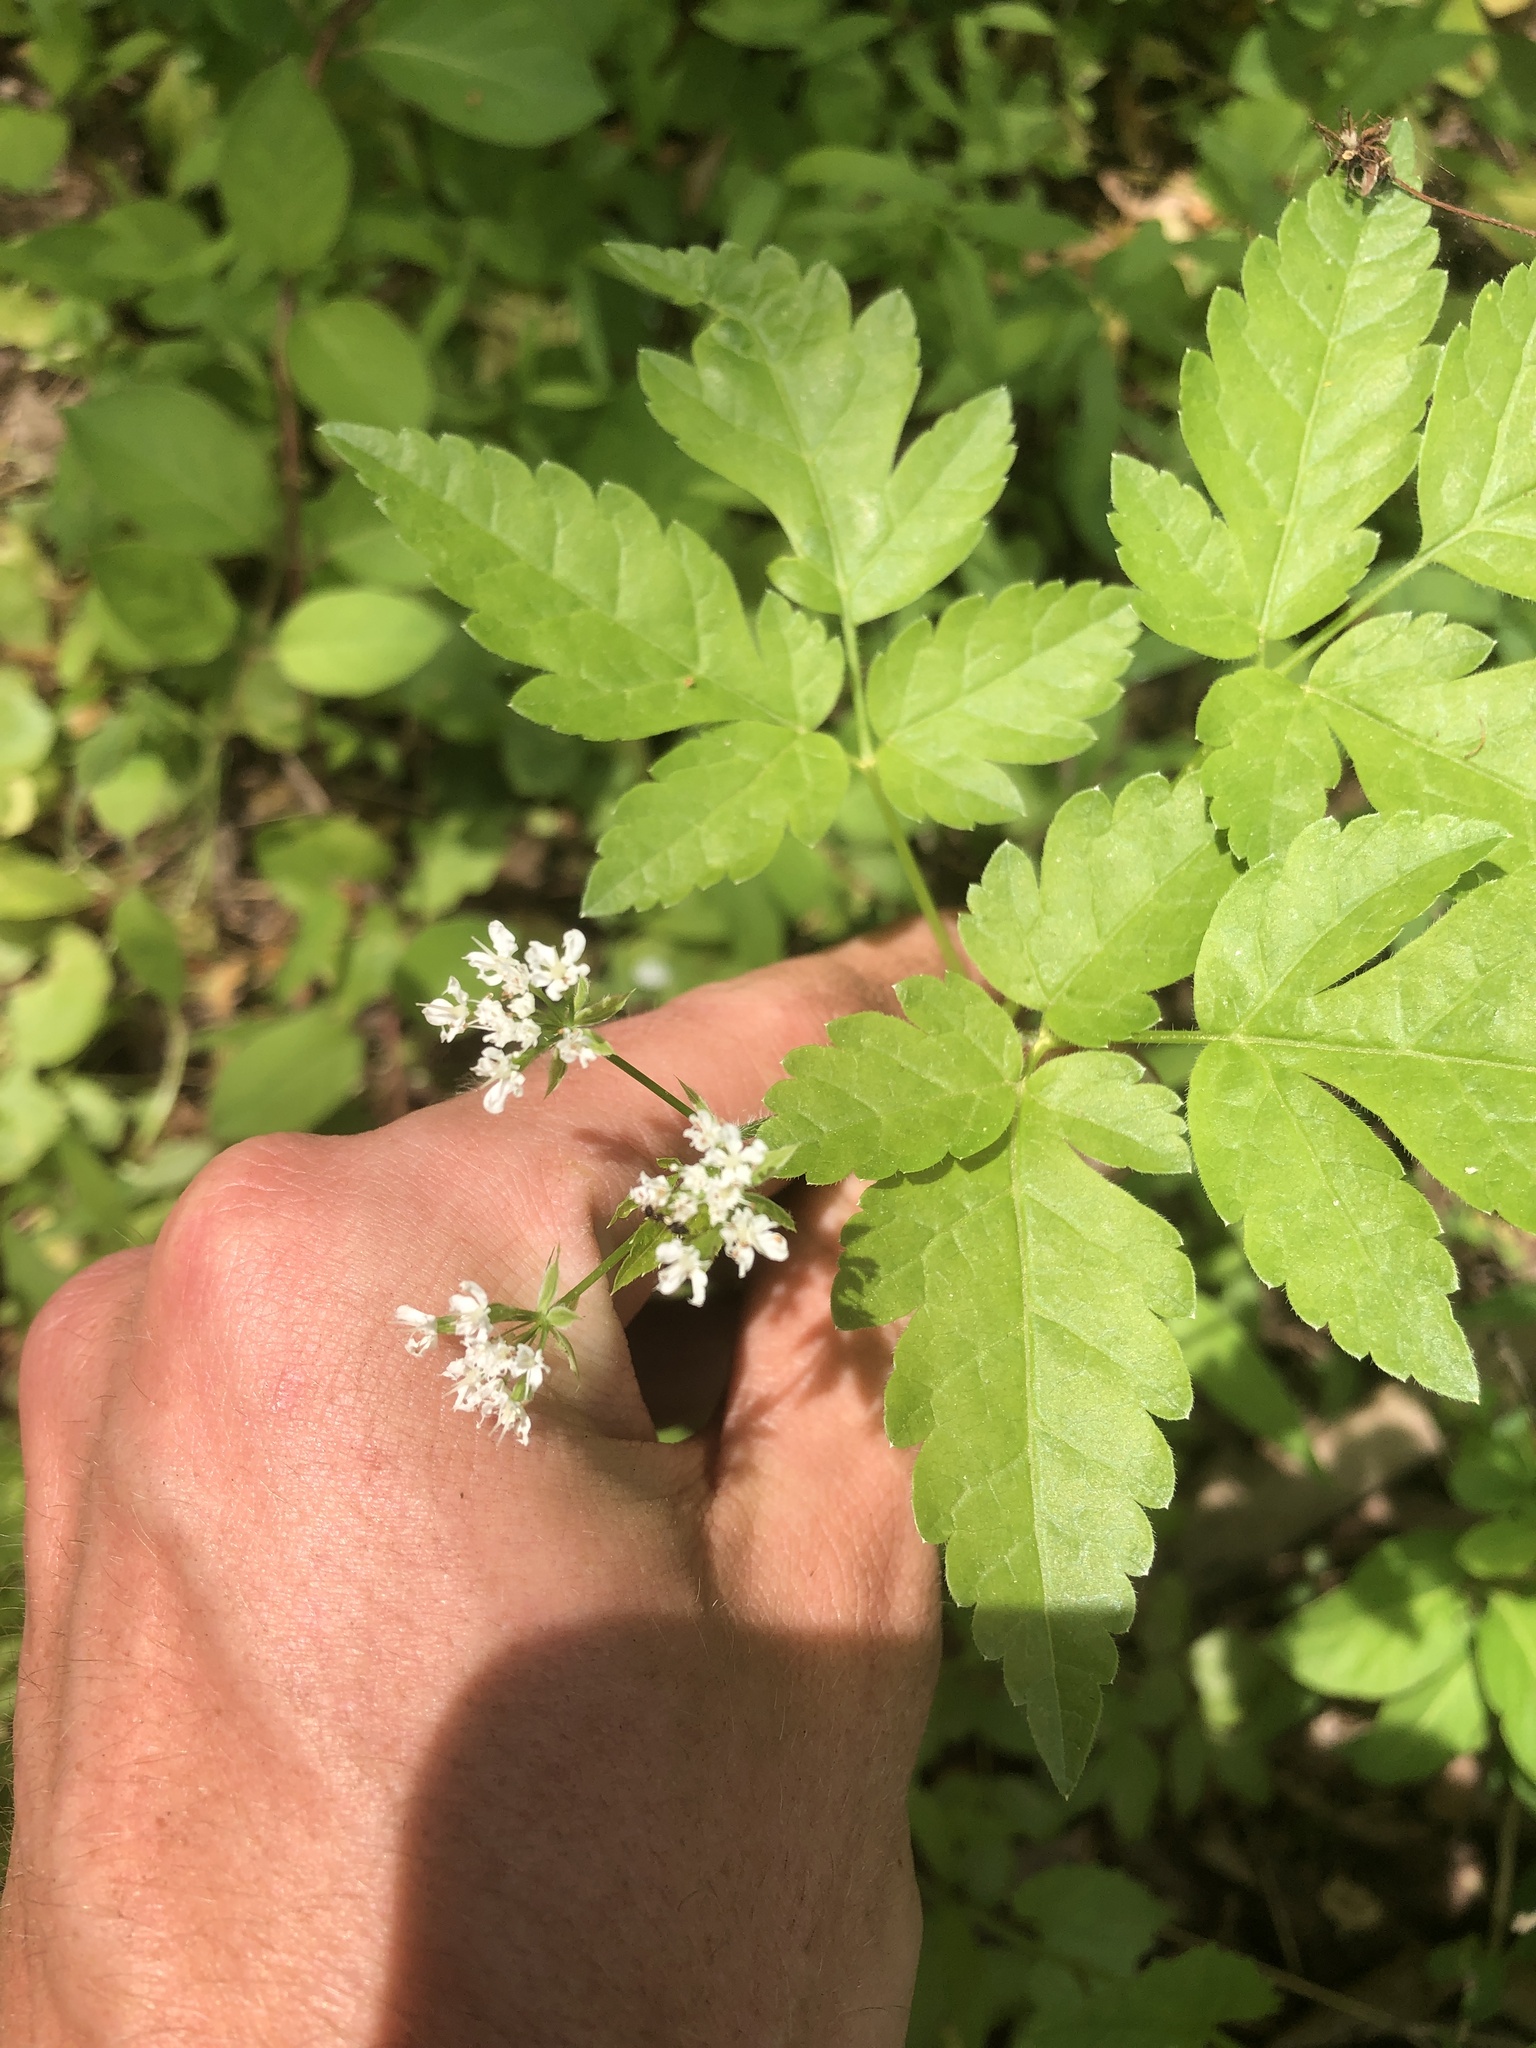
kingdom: Plantae
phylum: Tracheophyta
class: Magnoliopsida
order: Apiales
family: Apiaceae
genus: Osmorhiza
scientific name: Osmorhiza longistylis
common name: Smooth sweet cicely
